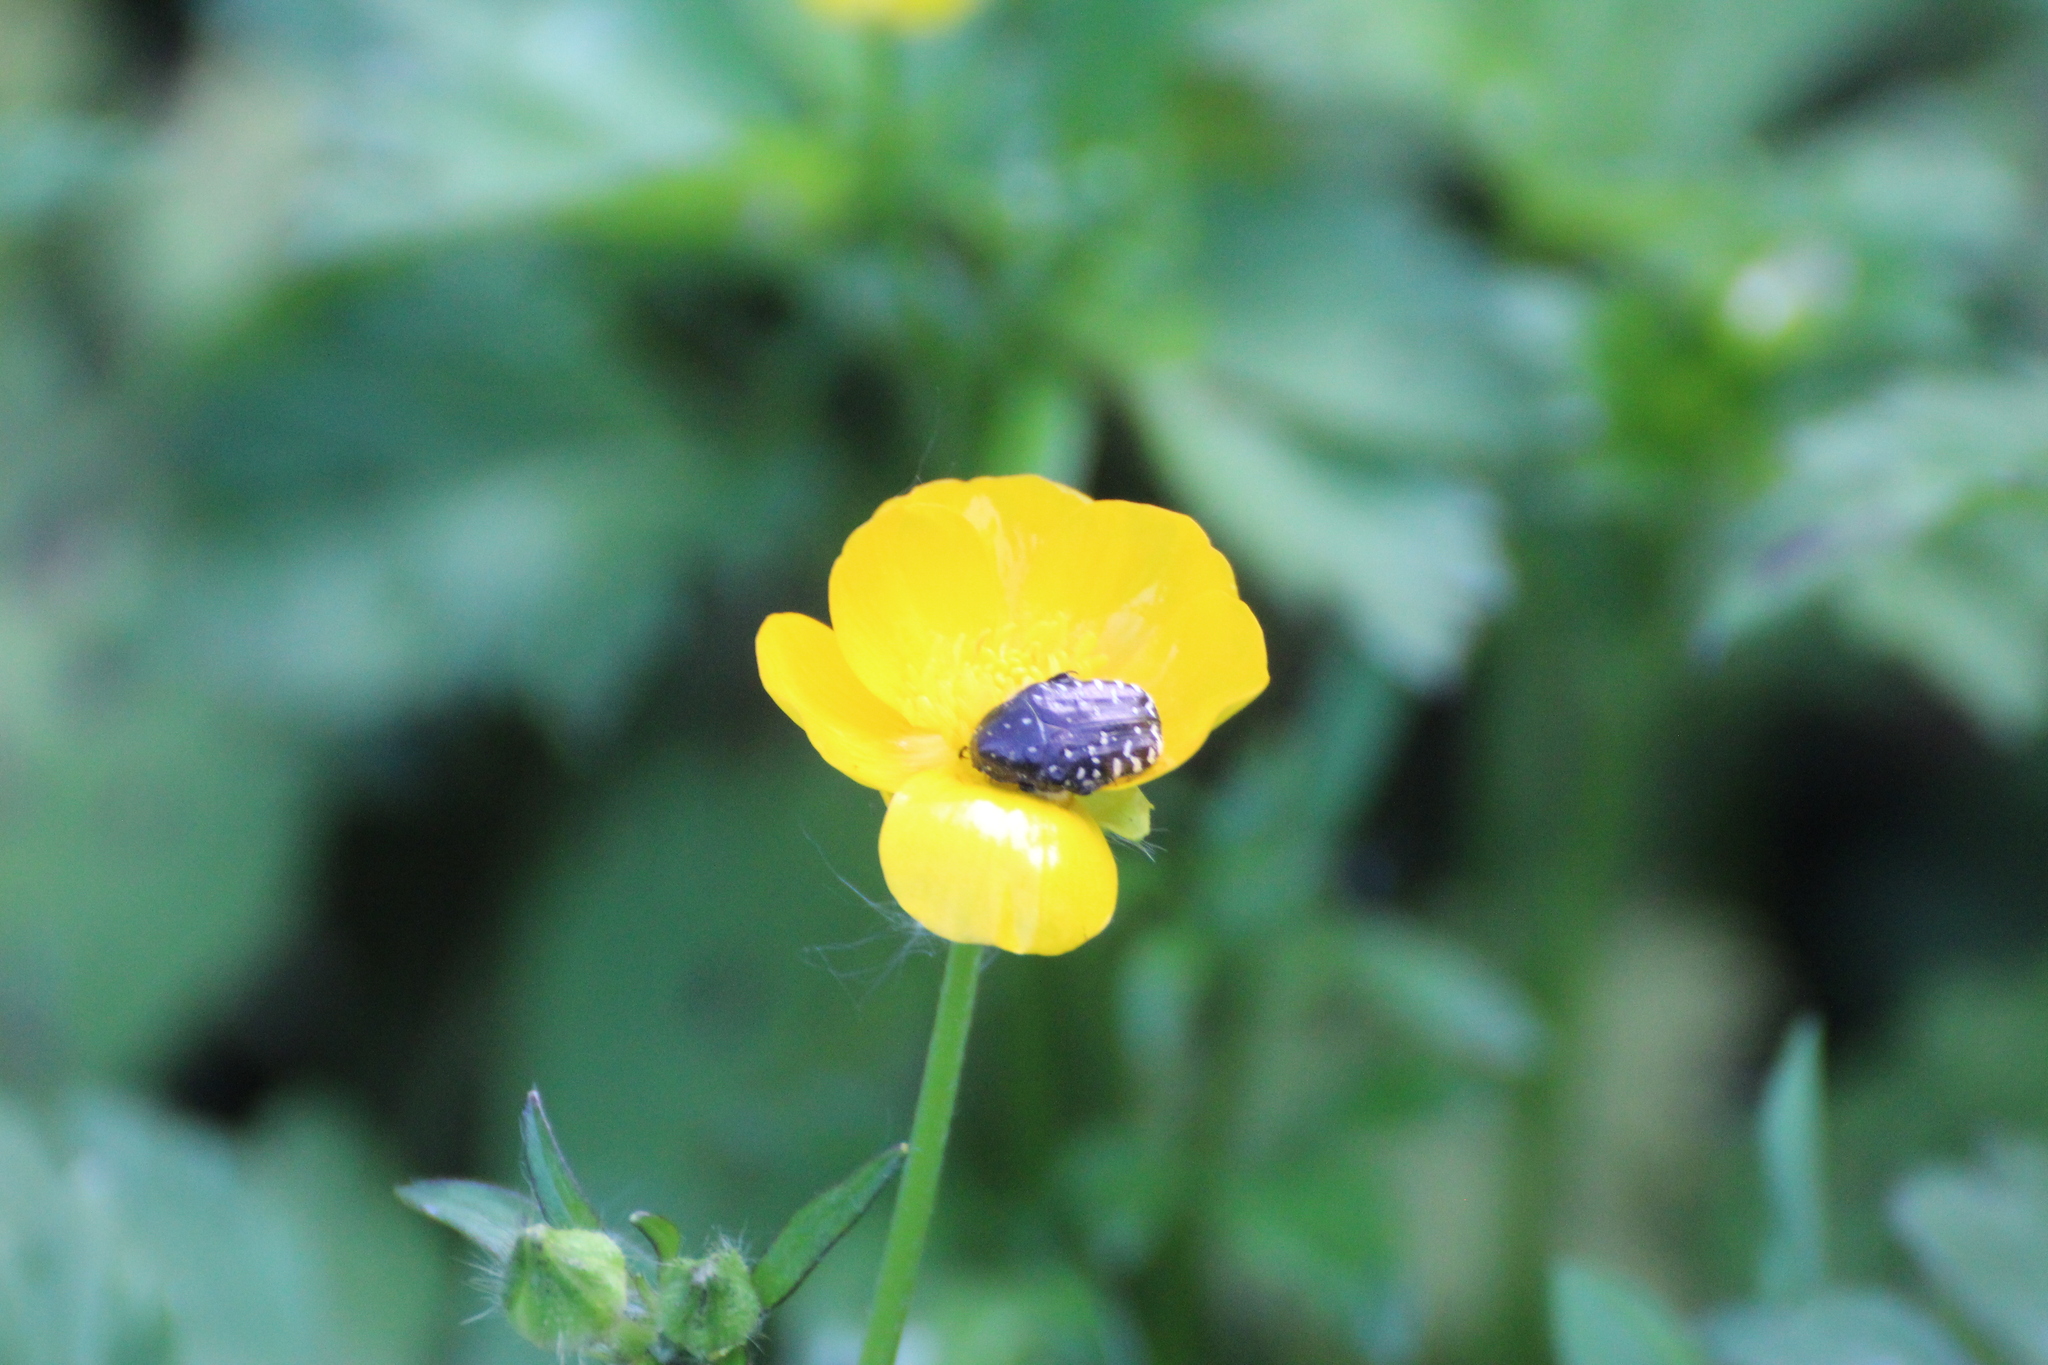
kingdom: Animalia
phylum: Arthropoda
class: Insecta
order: Coleoptera
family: Scarabaeidae
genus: Oxythyrea
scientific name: Oxythyrea funesta
